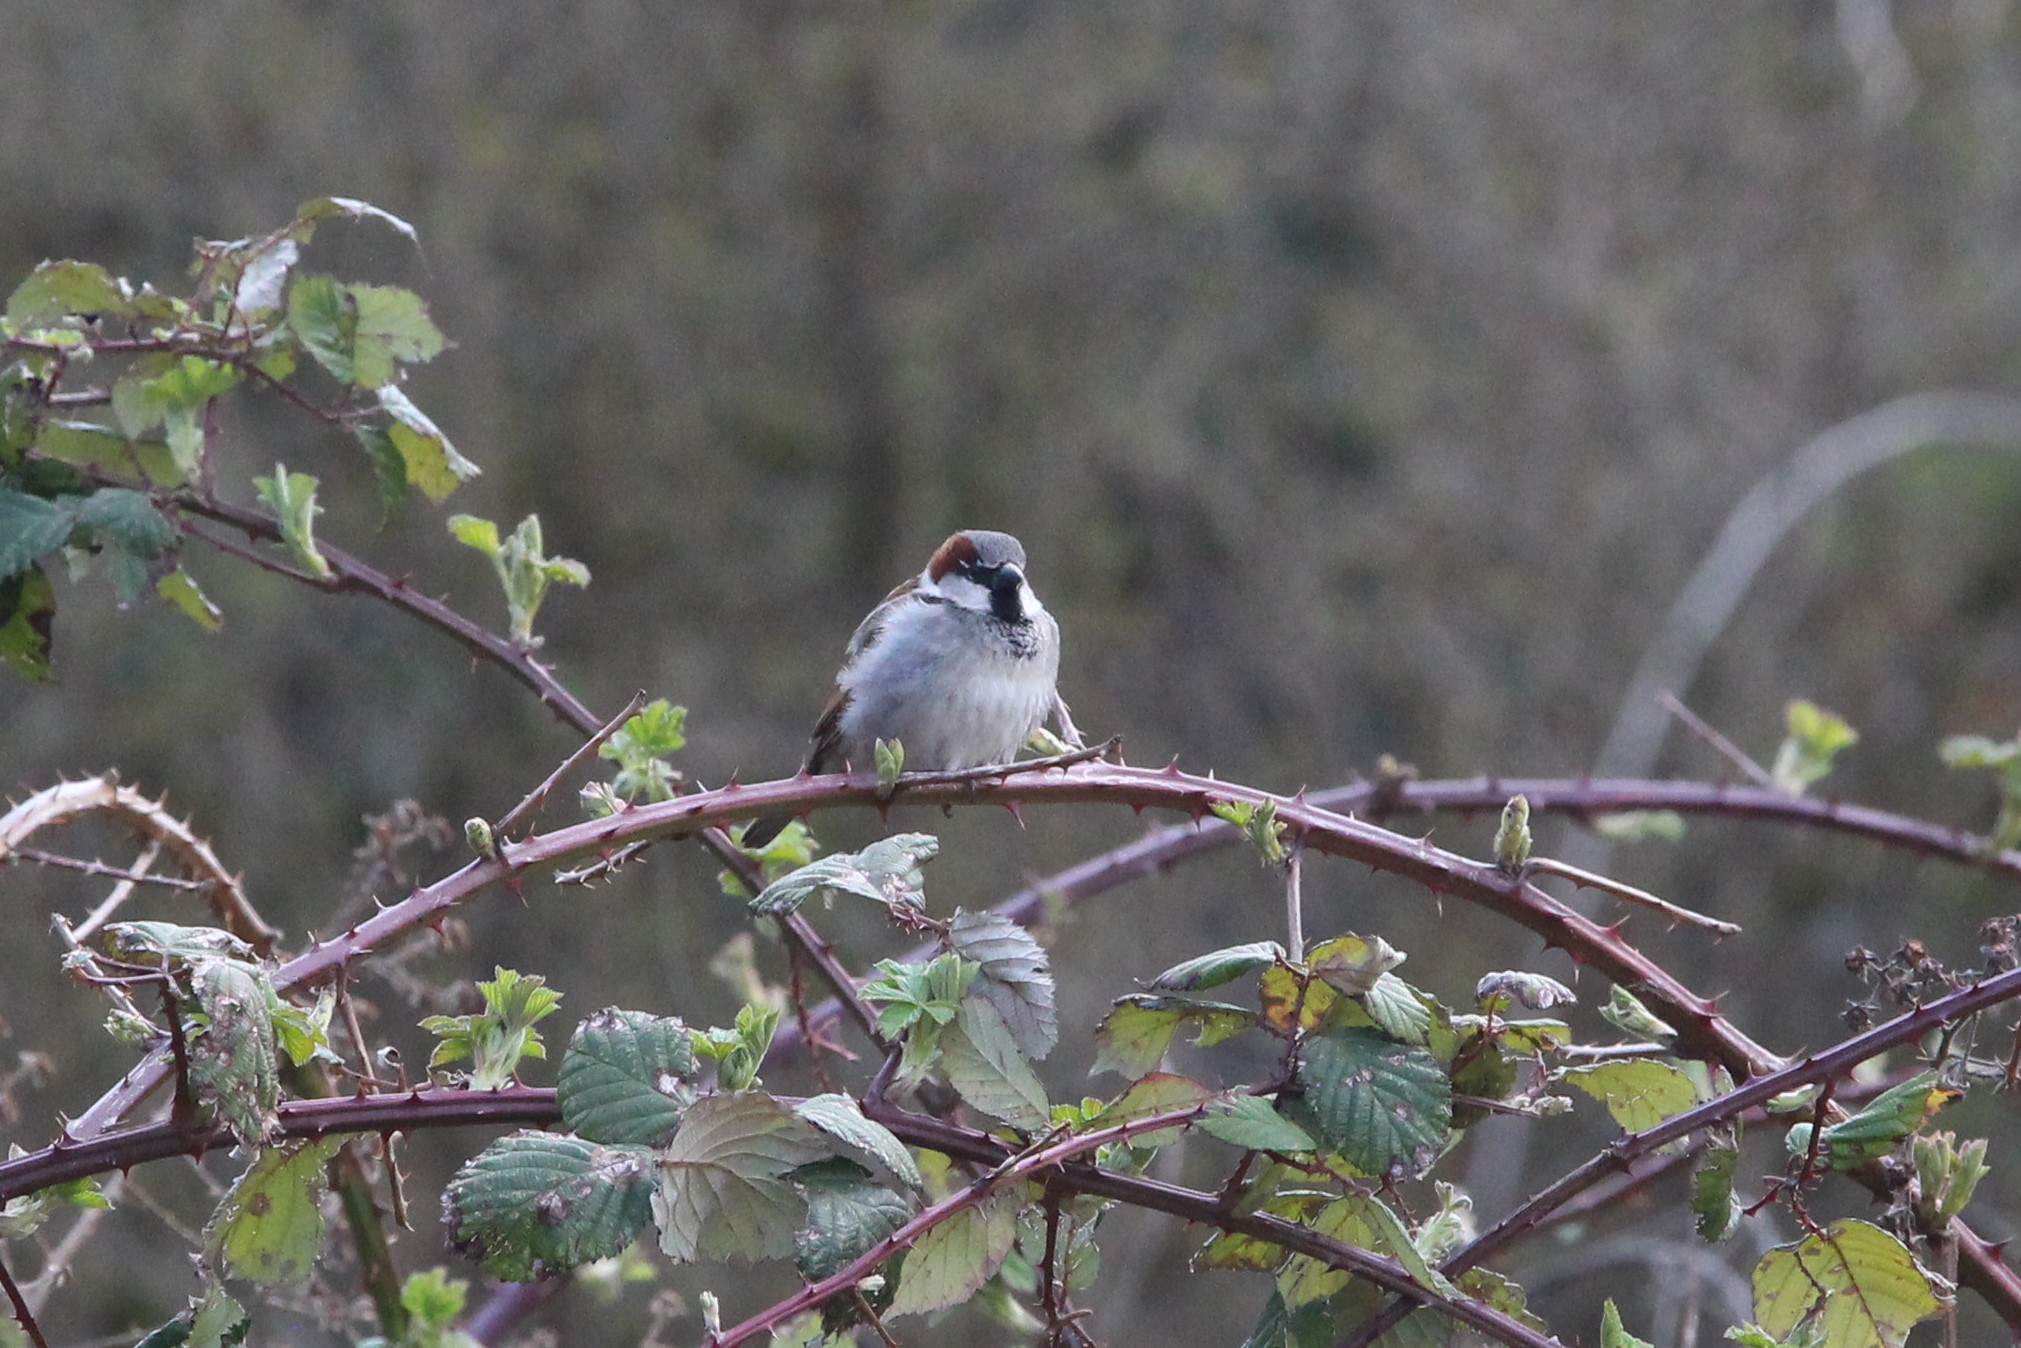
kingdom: Animalia
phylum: Chordata
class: Aves
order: Passeriformes
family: Passeridae
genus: Passer
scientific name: Passer domesticus
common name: House sparrow
